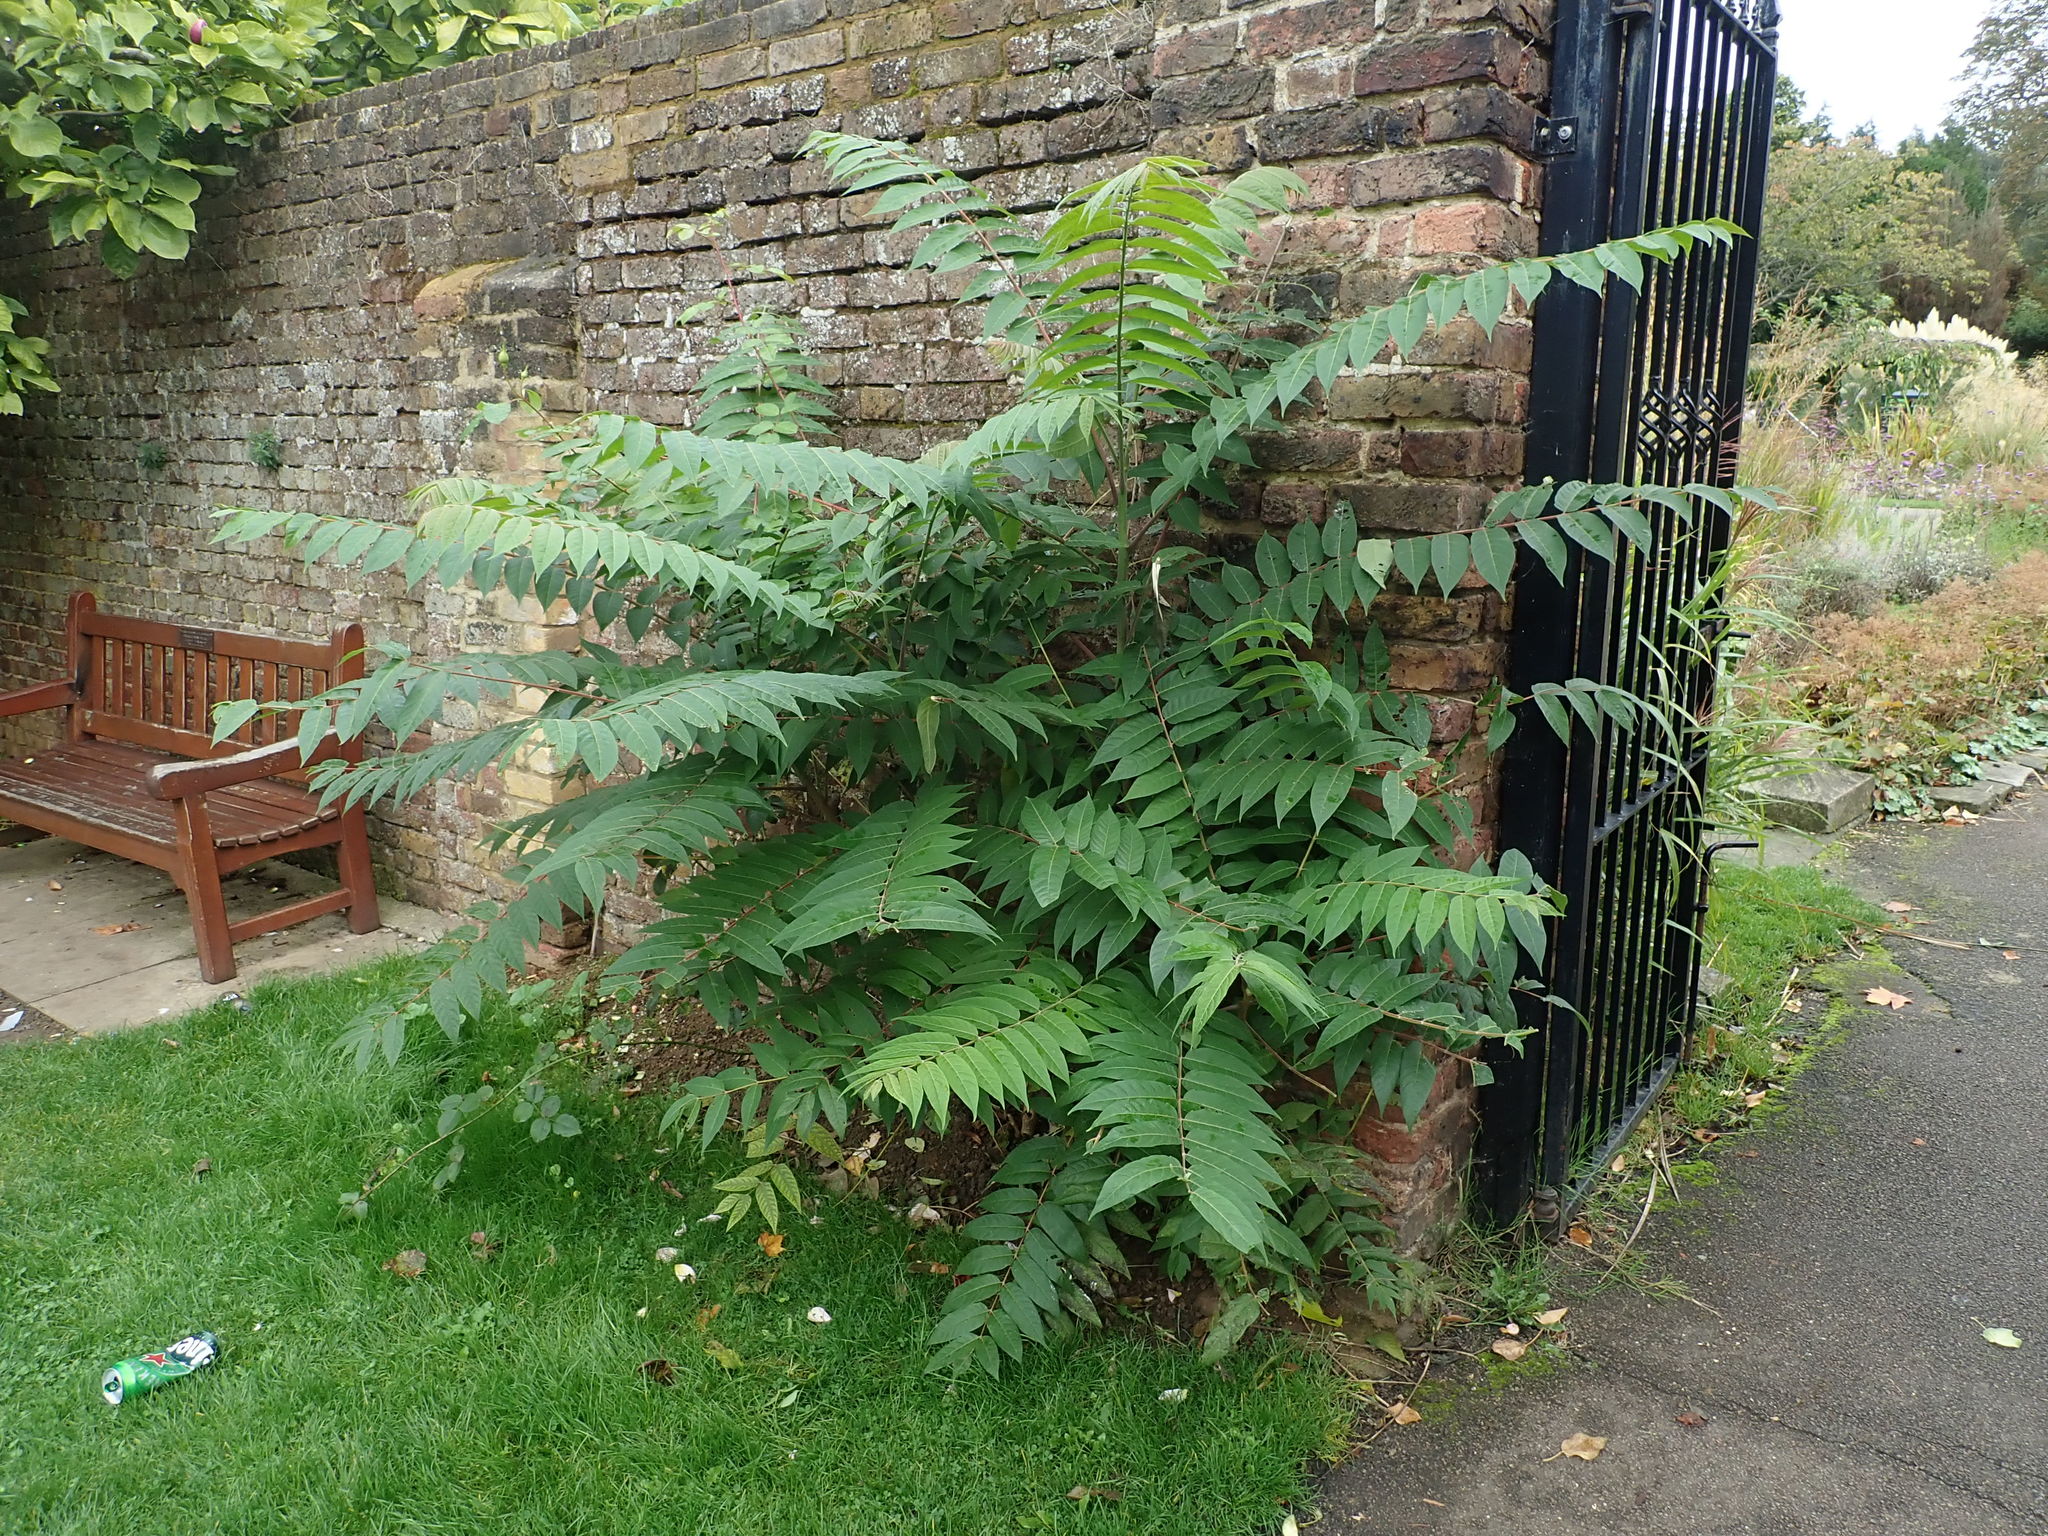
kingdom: Plantae
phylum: Tracheophyta
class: Magnoliopsida
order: Sapindales
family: Simaroubaceae
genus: Ailanthus
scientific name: Ailanthus altissima
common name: Tree-of-heaven
